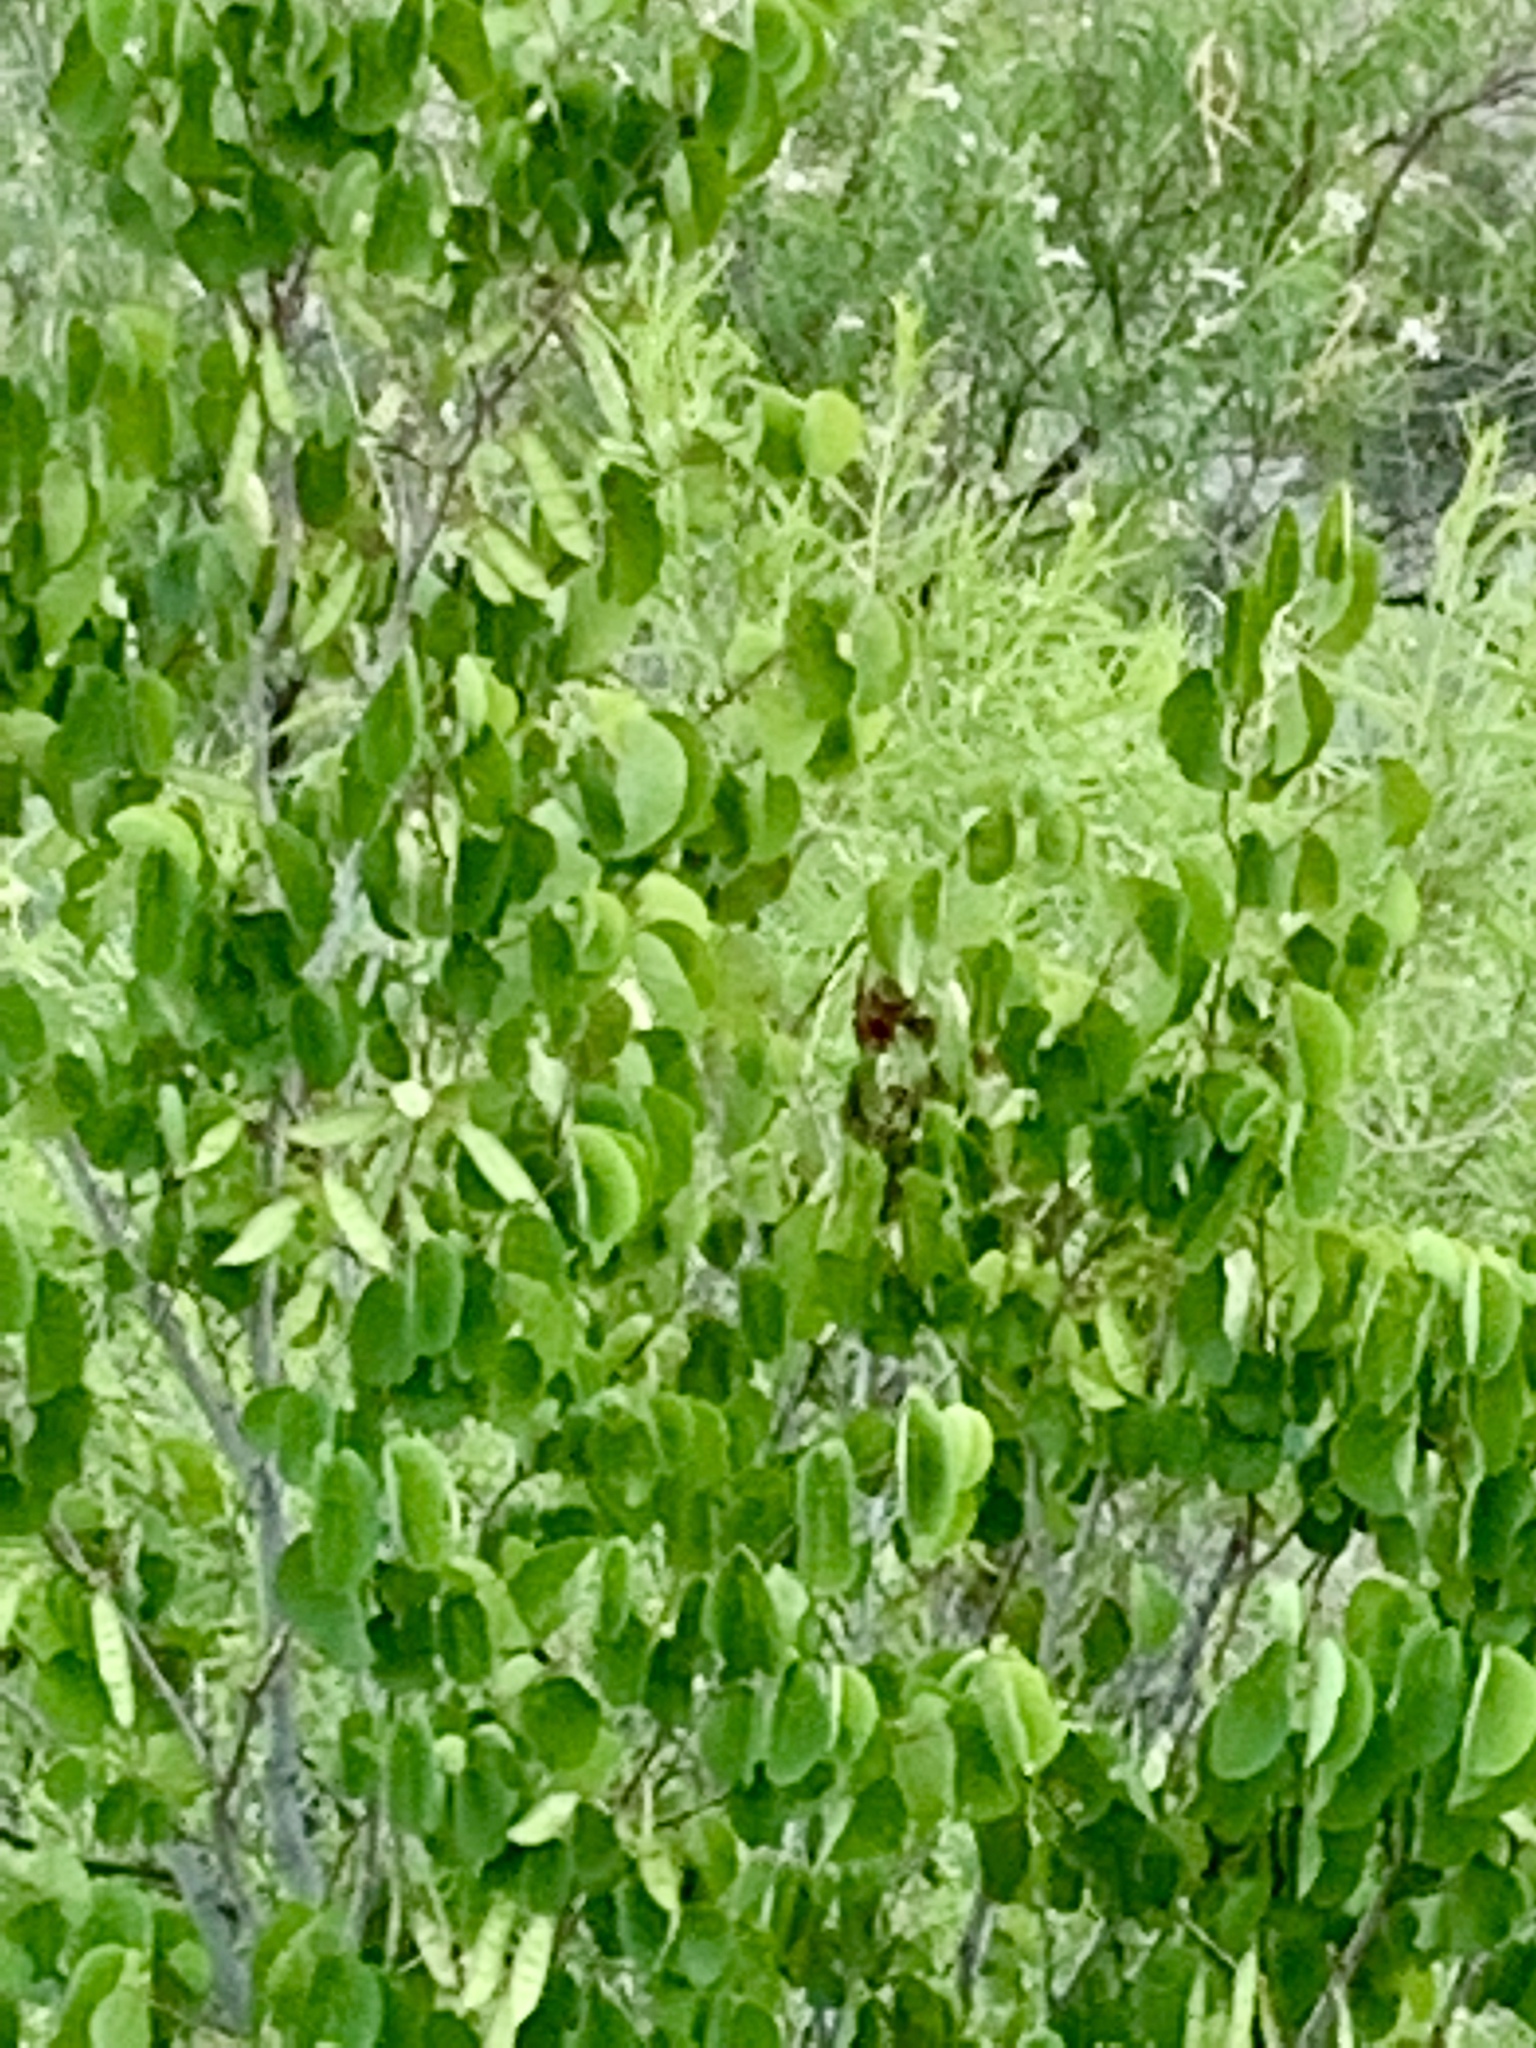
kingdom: Plantae
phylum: Tracheophyta
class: Magnoliopsida
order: Fabales
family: Fabaceae
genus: Cercis
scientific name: Cercis occidentalis
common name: California redbud
